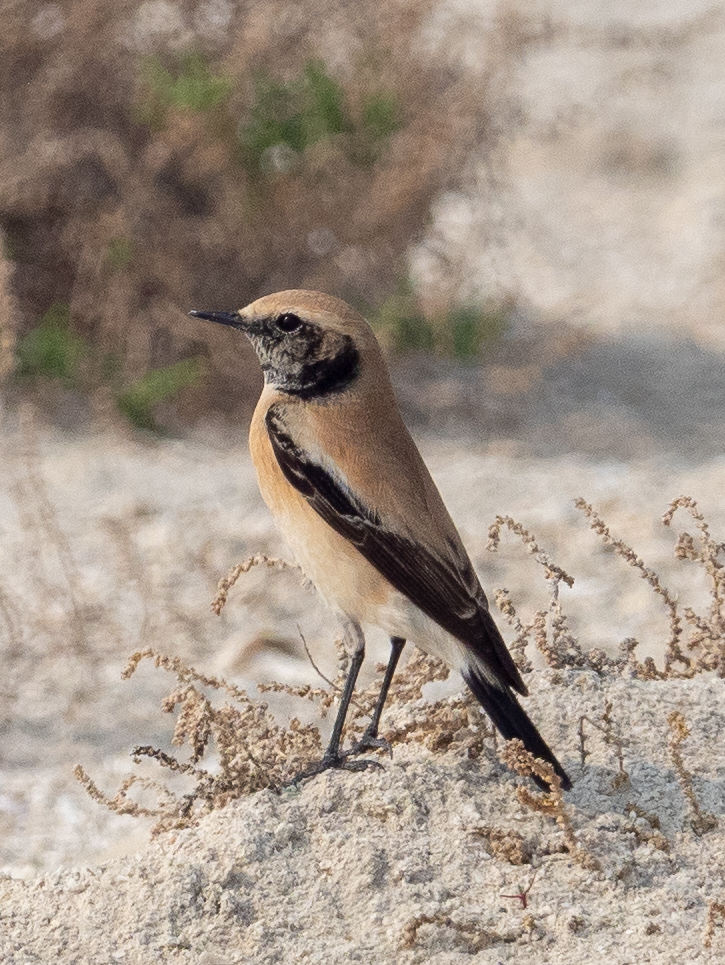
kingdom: Animalia
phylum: Chordata
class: Aves
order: Passeriformes
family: Muscicapidae
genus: Oenanthe
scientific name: Oenanthe deserti
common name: Desert wheatear
